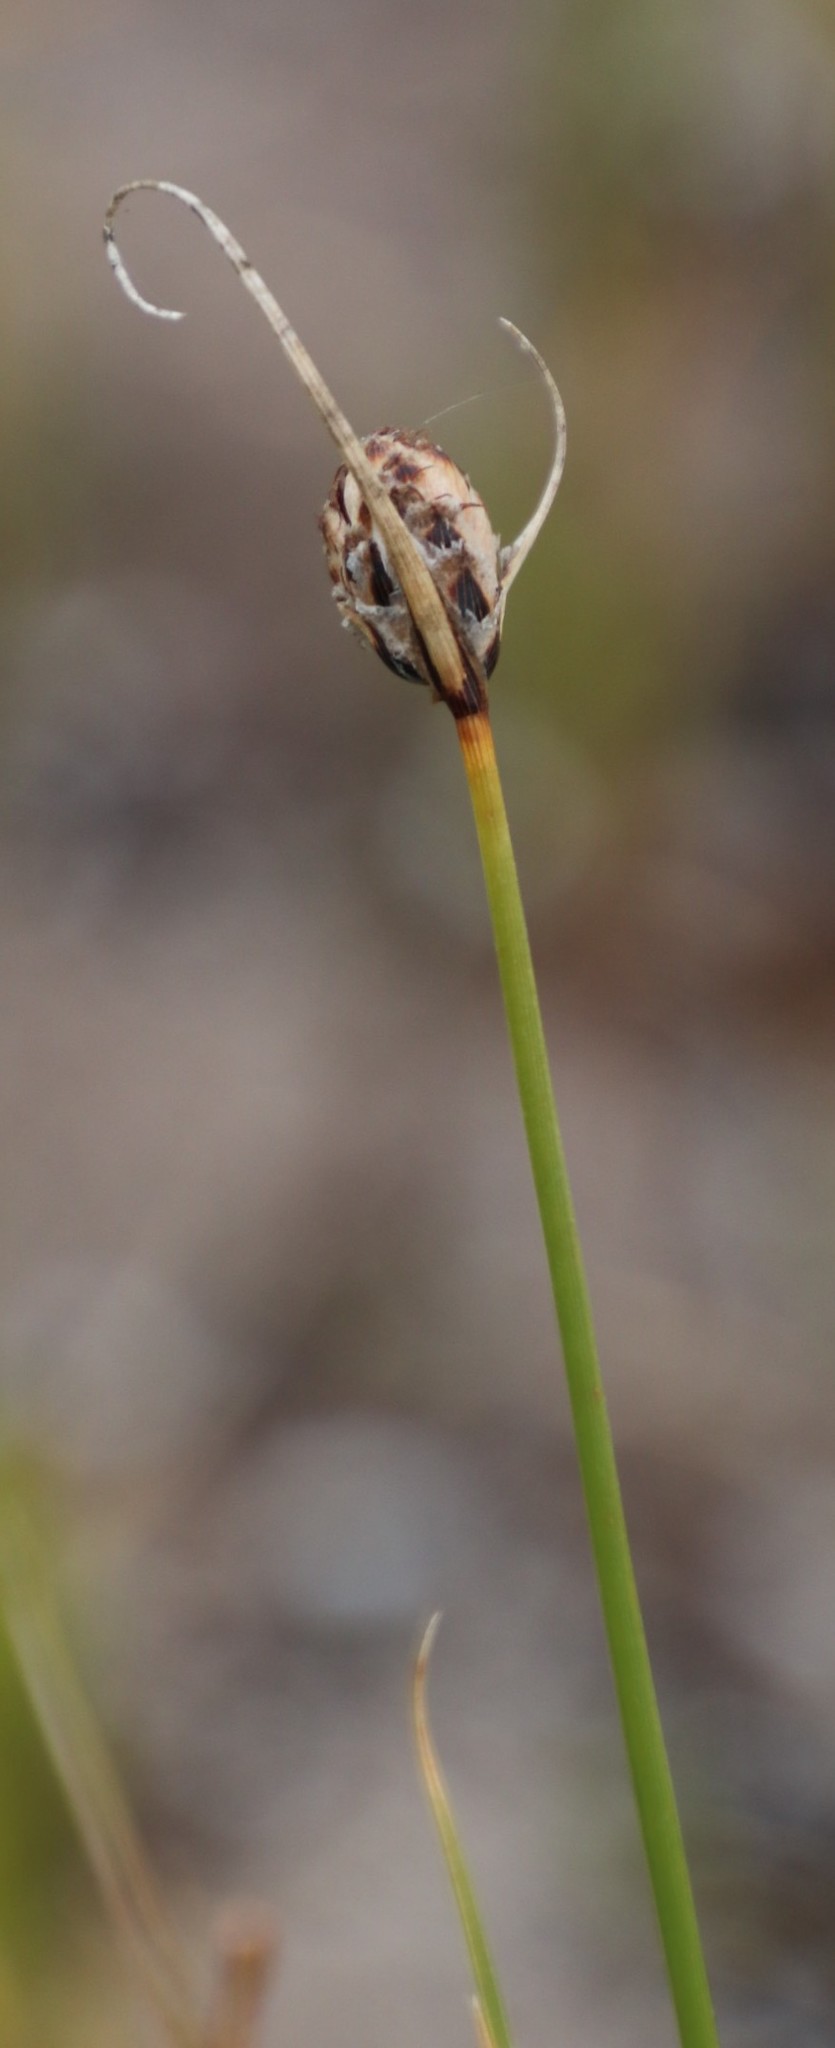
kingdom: Plantae
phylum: Tracheophyta
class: Liliopsida
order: Poales
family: Cyperaceae
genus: Hellmuthia
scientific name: Hellmuthia membranacea
